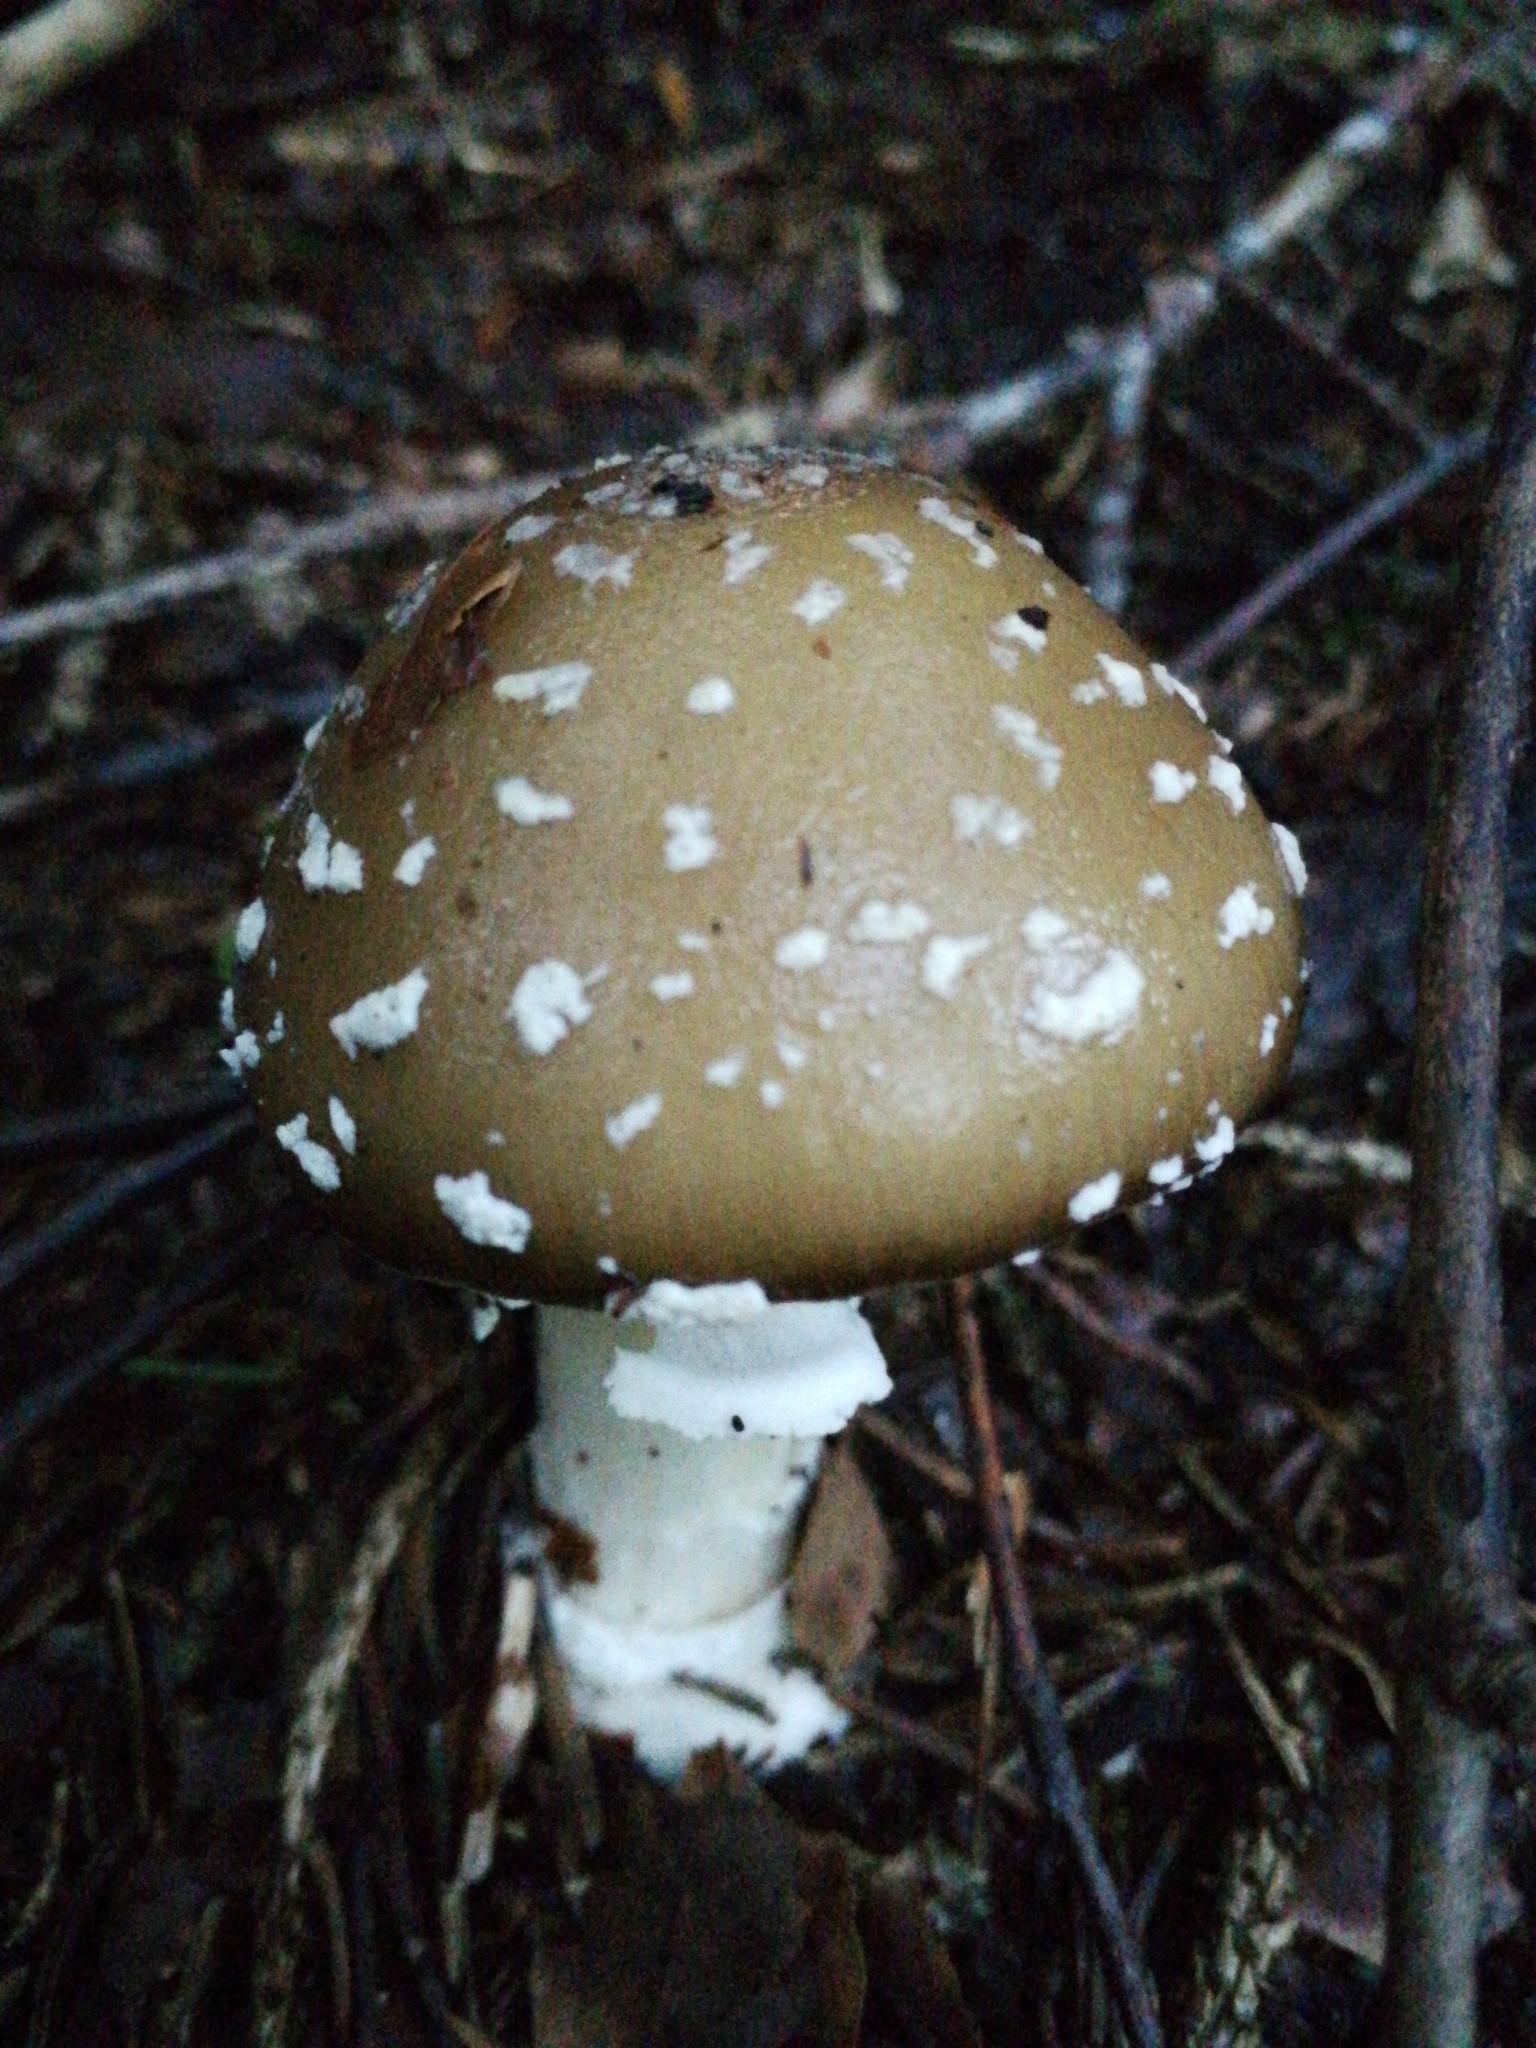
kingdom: Fungi
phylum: Basidiomycota
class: Agaricomycetes
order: Agaricales
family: Amanitaceae
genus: Amanita
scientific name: Amanita pantherina
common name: Panthercap
